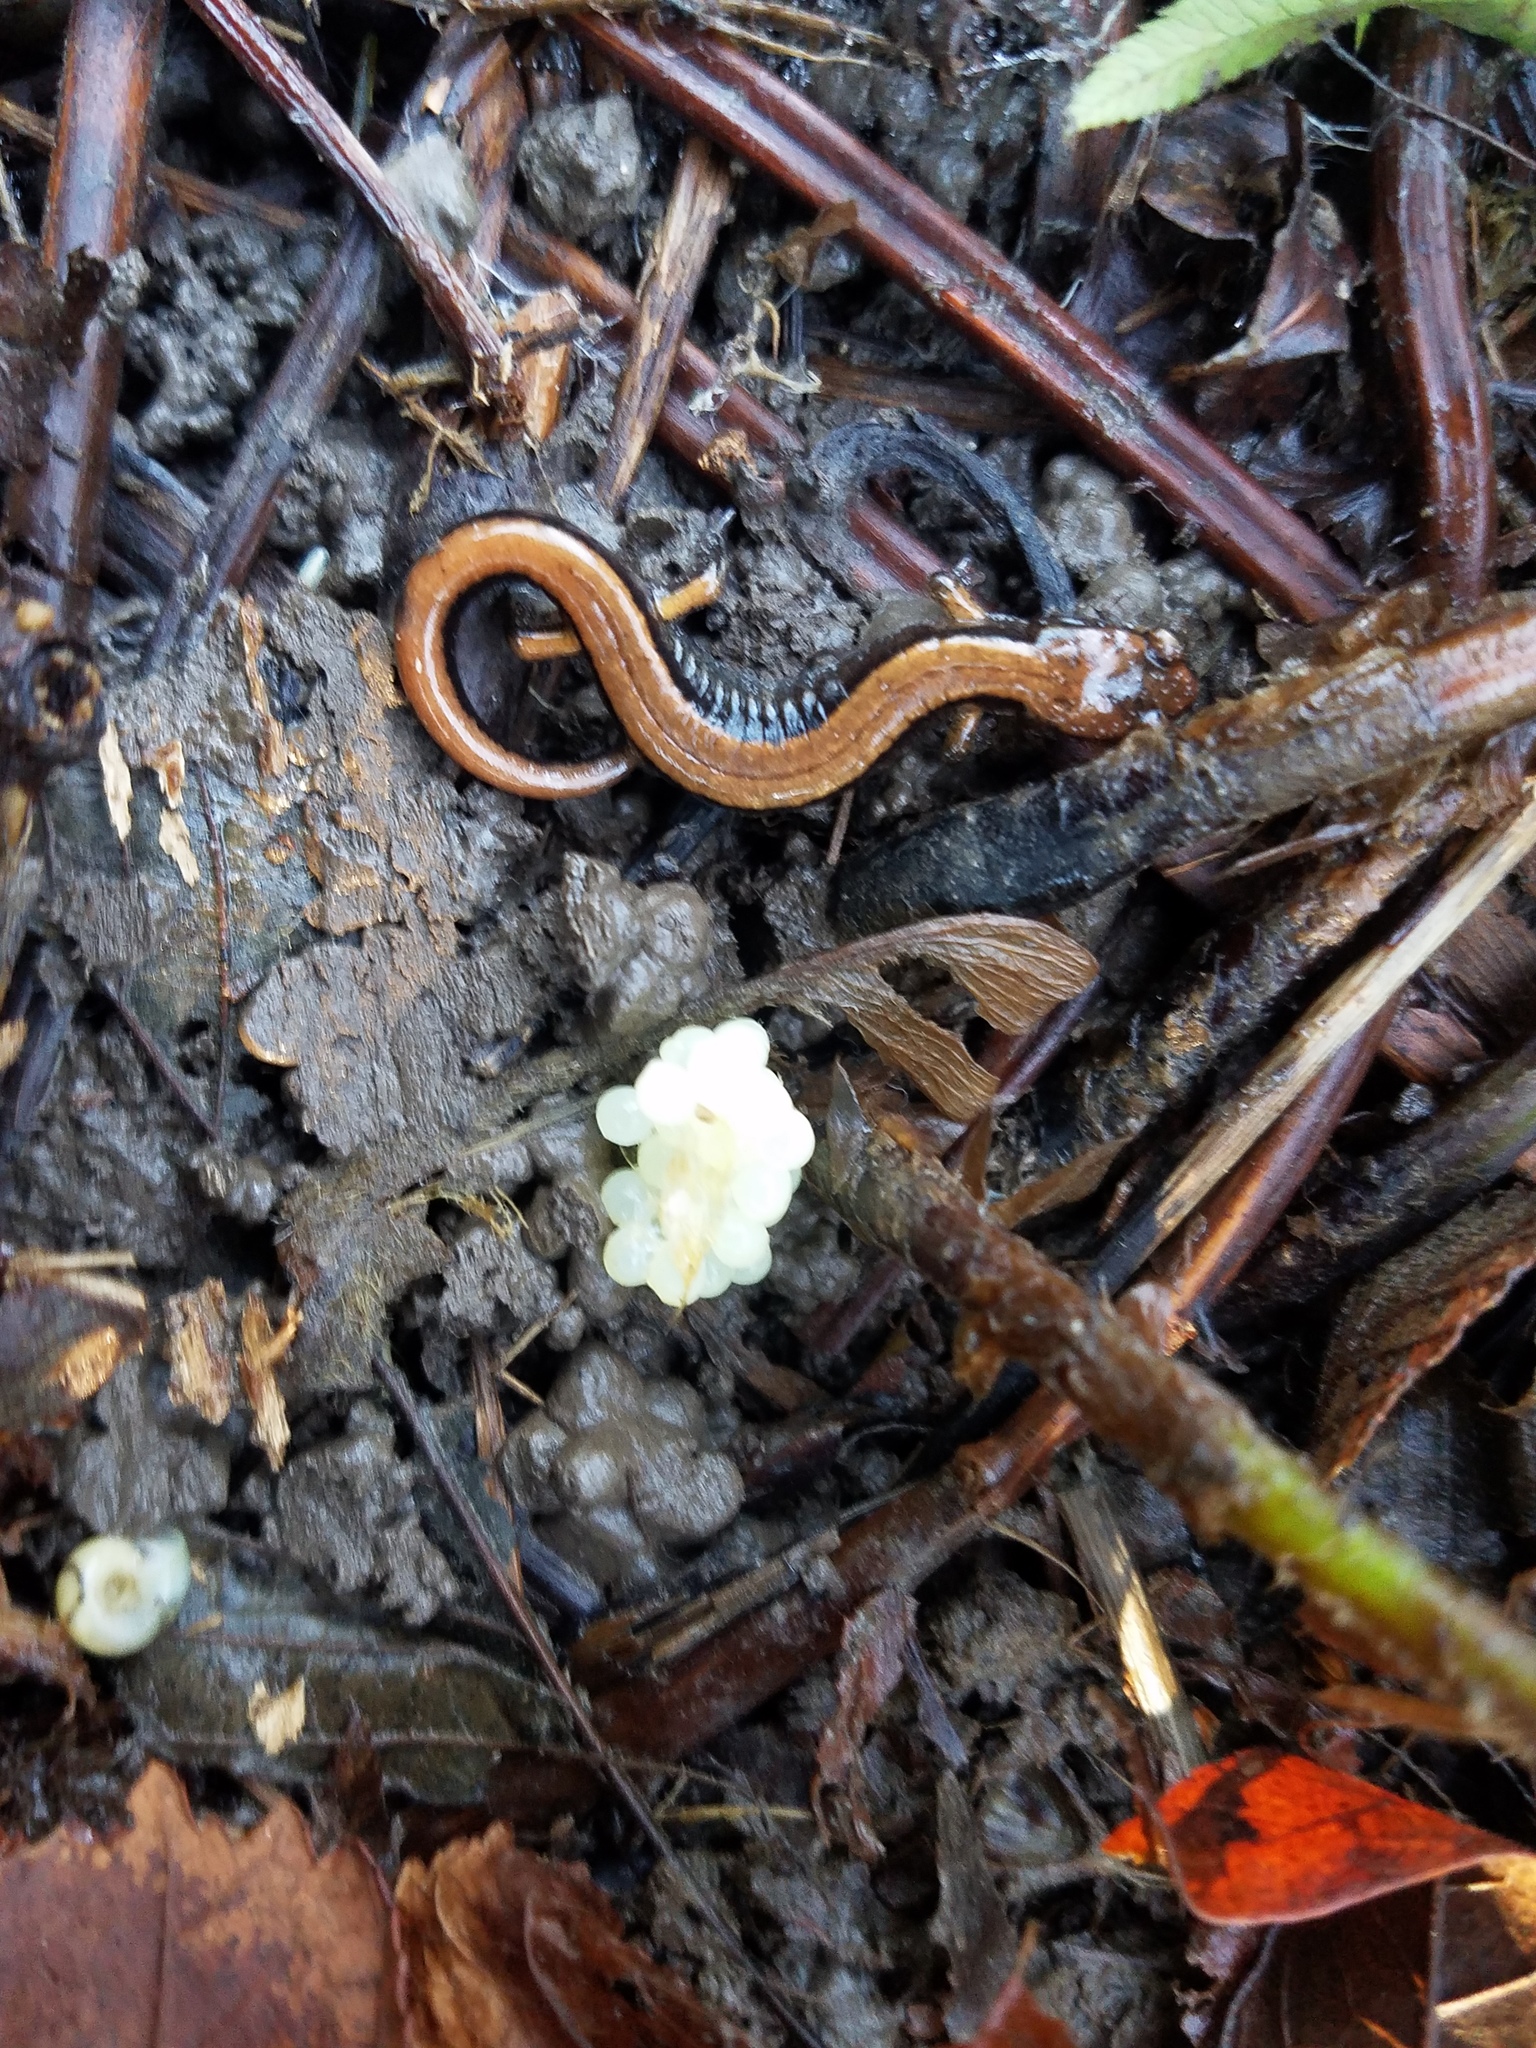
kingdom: Animalia
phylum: Chordata
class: Amphibia
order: Caudata
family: Plethodontidae
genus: Plethodon
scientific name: Plethodon vehiculum
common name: Western red-backed salamander
